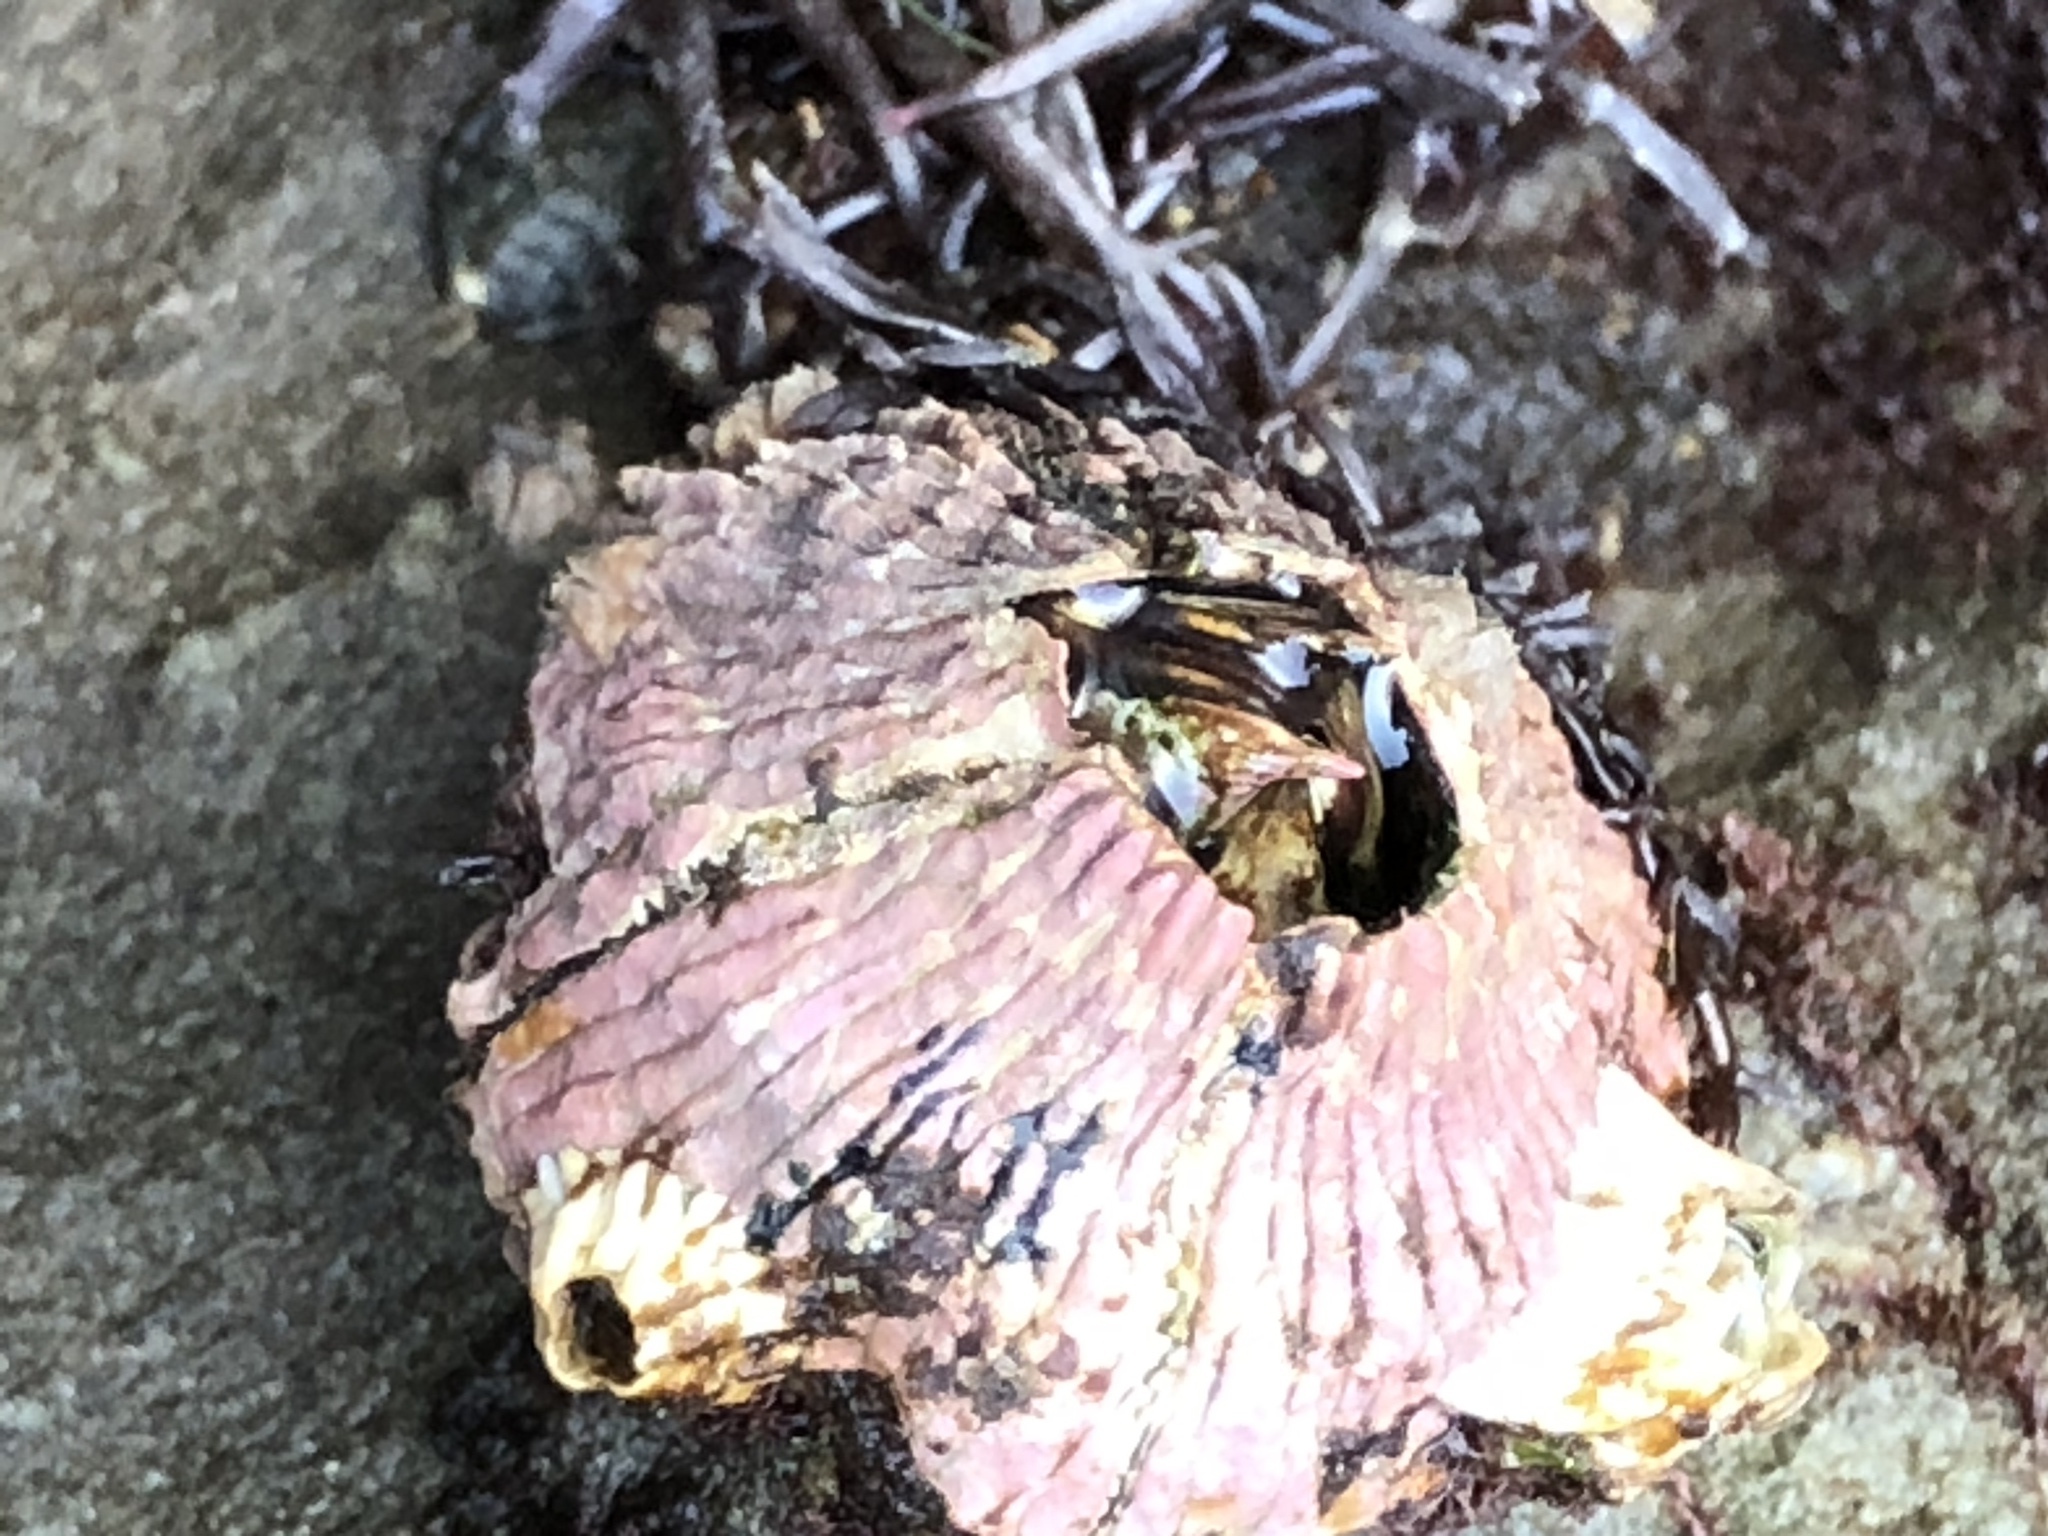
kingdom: Animalia
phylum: Arthropoda
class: Maxillopoda
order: Sessilia
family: Tetraclitidae
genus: Tetraclita
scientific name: Tetraclita rubescens
